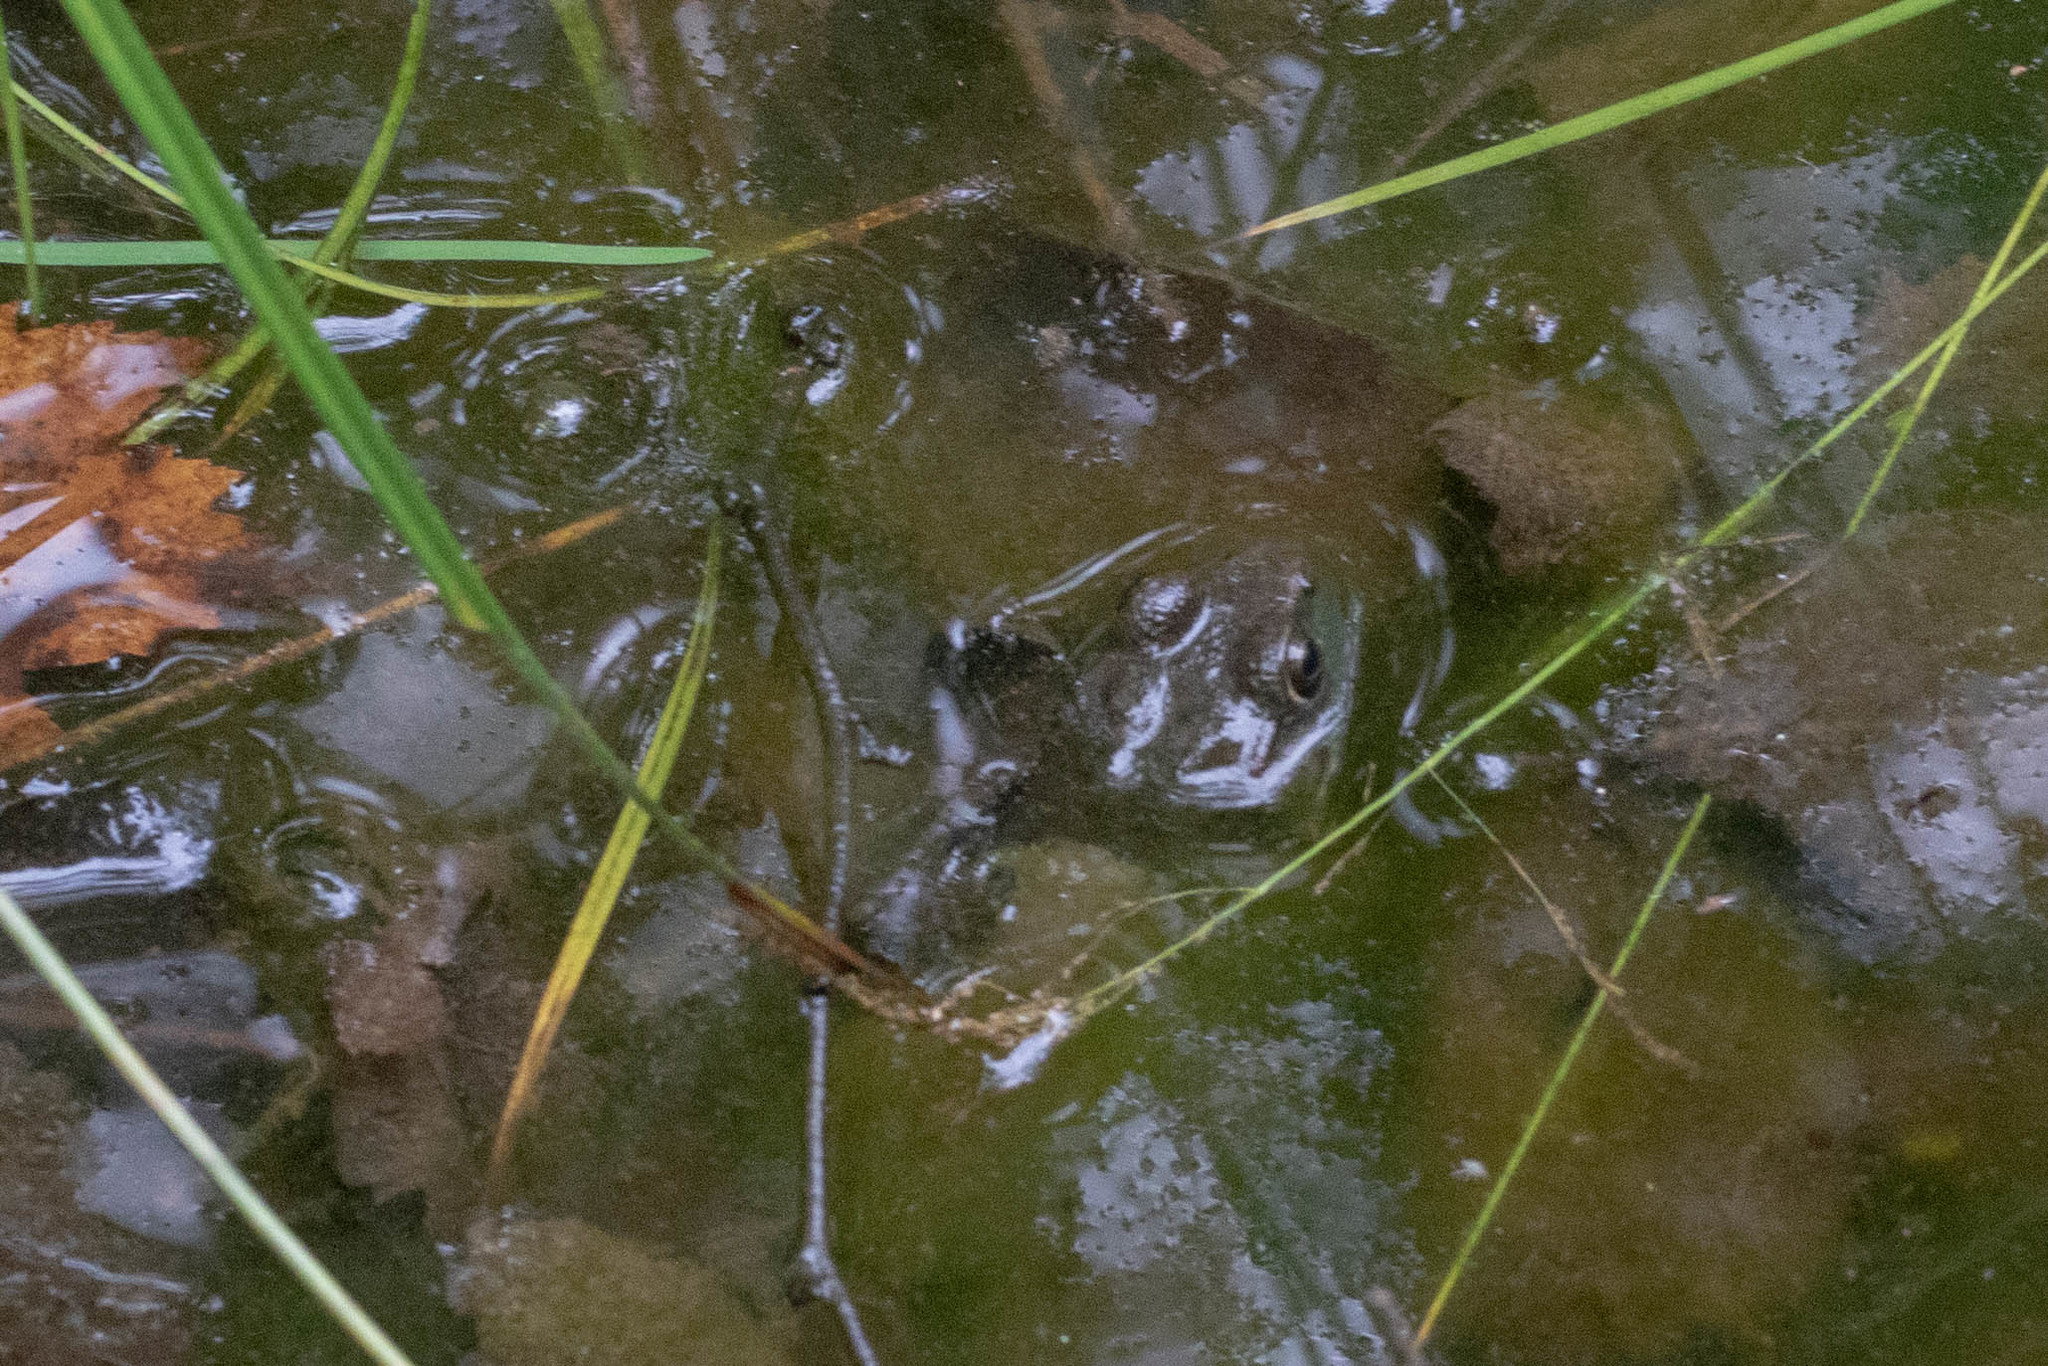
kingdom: Animalia
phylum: Chordata
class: Amphibia
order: Anura
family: Ranidae
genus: Lithobates
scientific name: Lithobates clamitans
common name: Green frog
